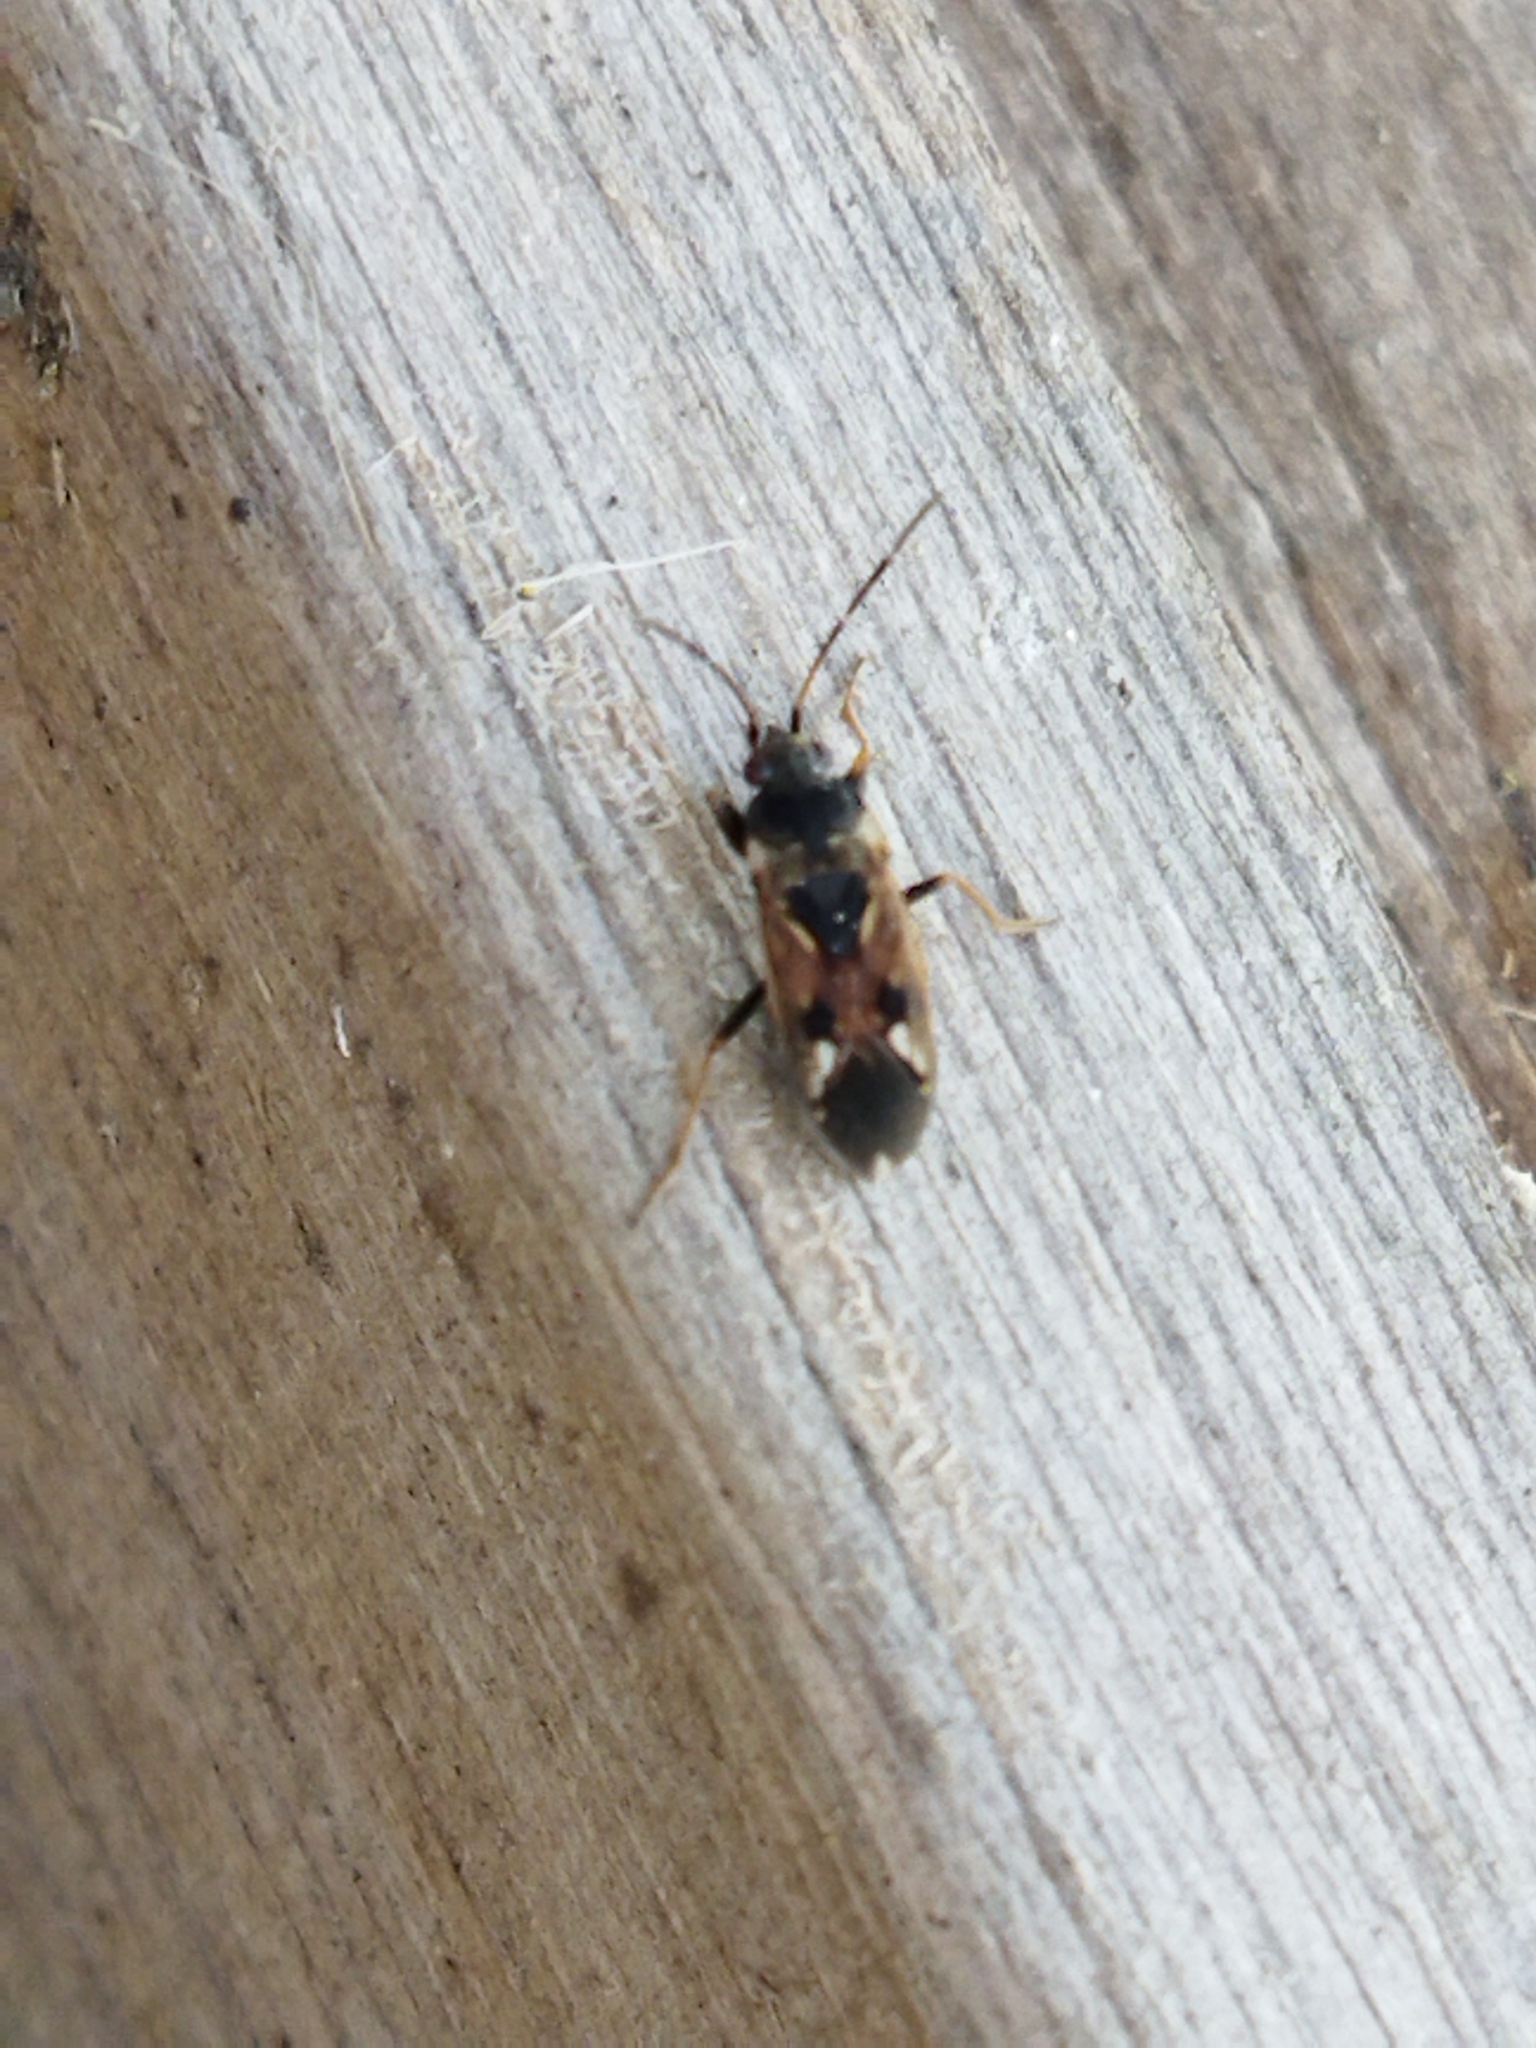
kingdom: Animalia
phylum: Arthropoda
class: Insecta
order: Hemiptera
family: Rhyparochromidae
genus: Rhyparochromus
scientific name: Rhyparochromus vulgaris
